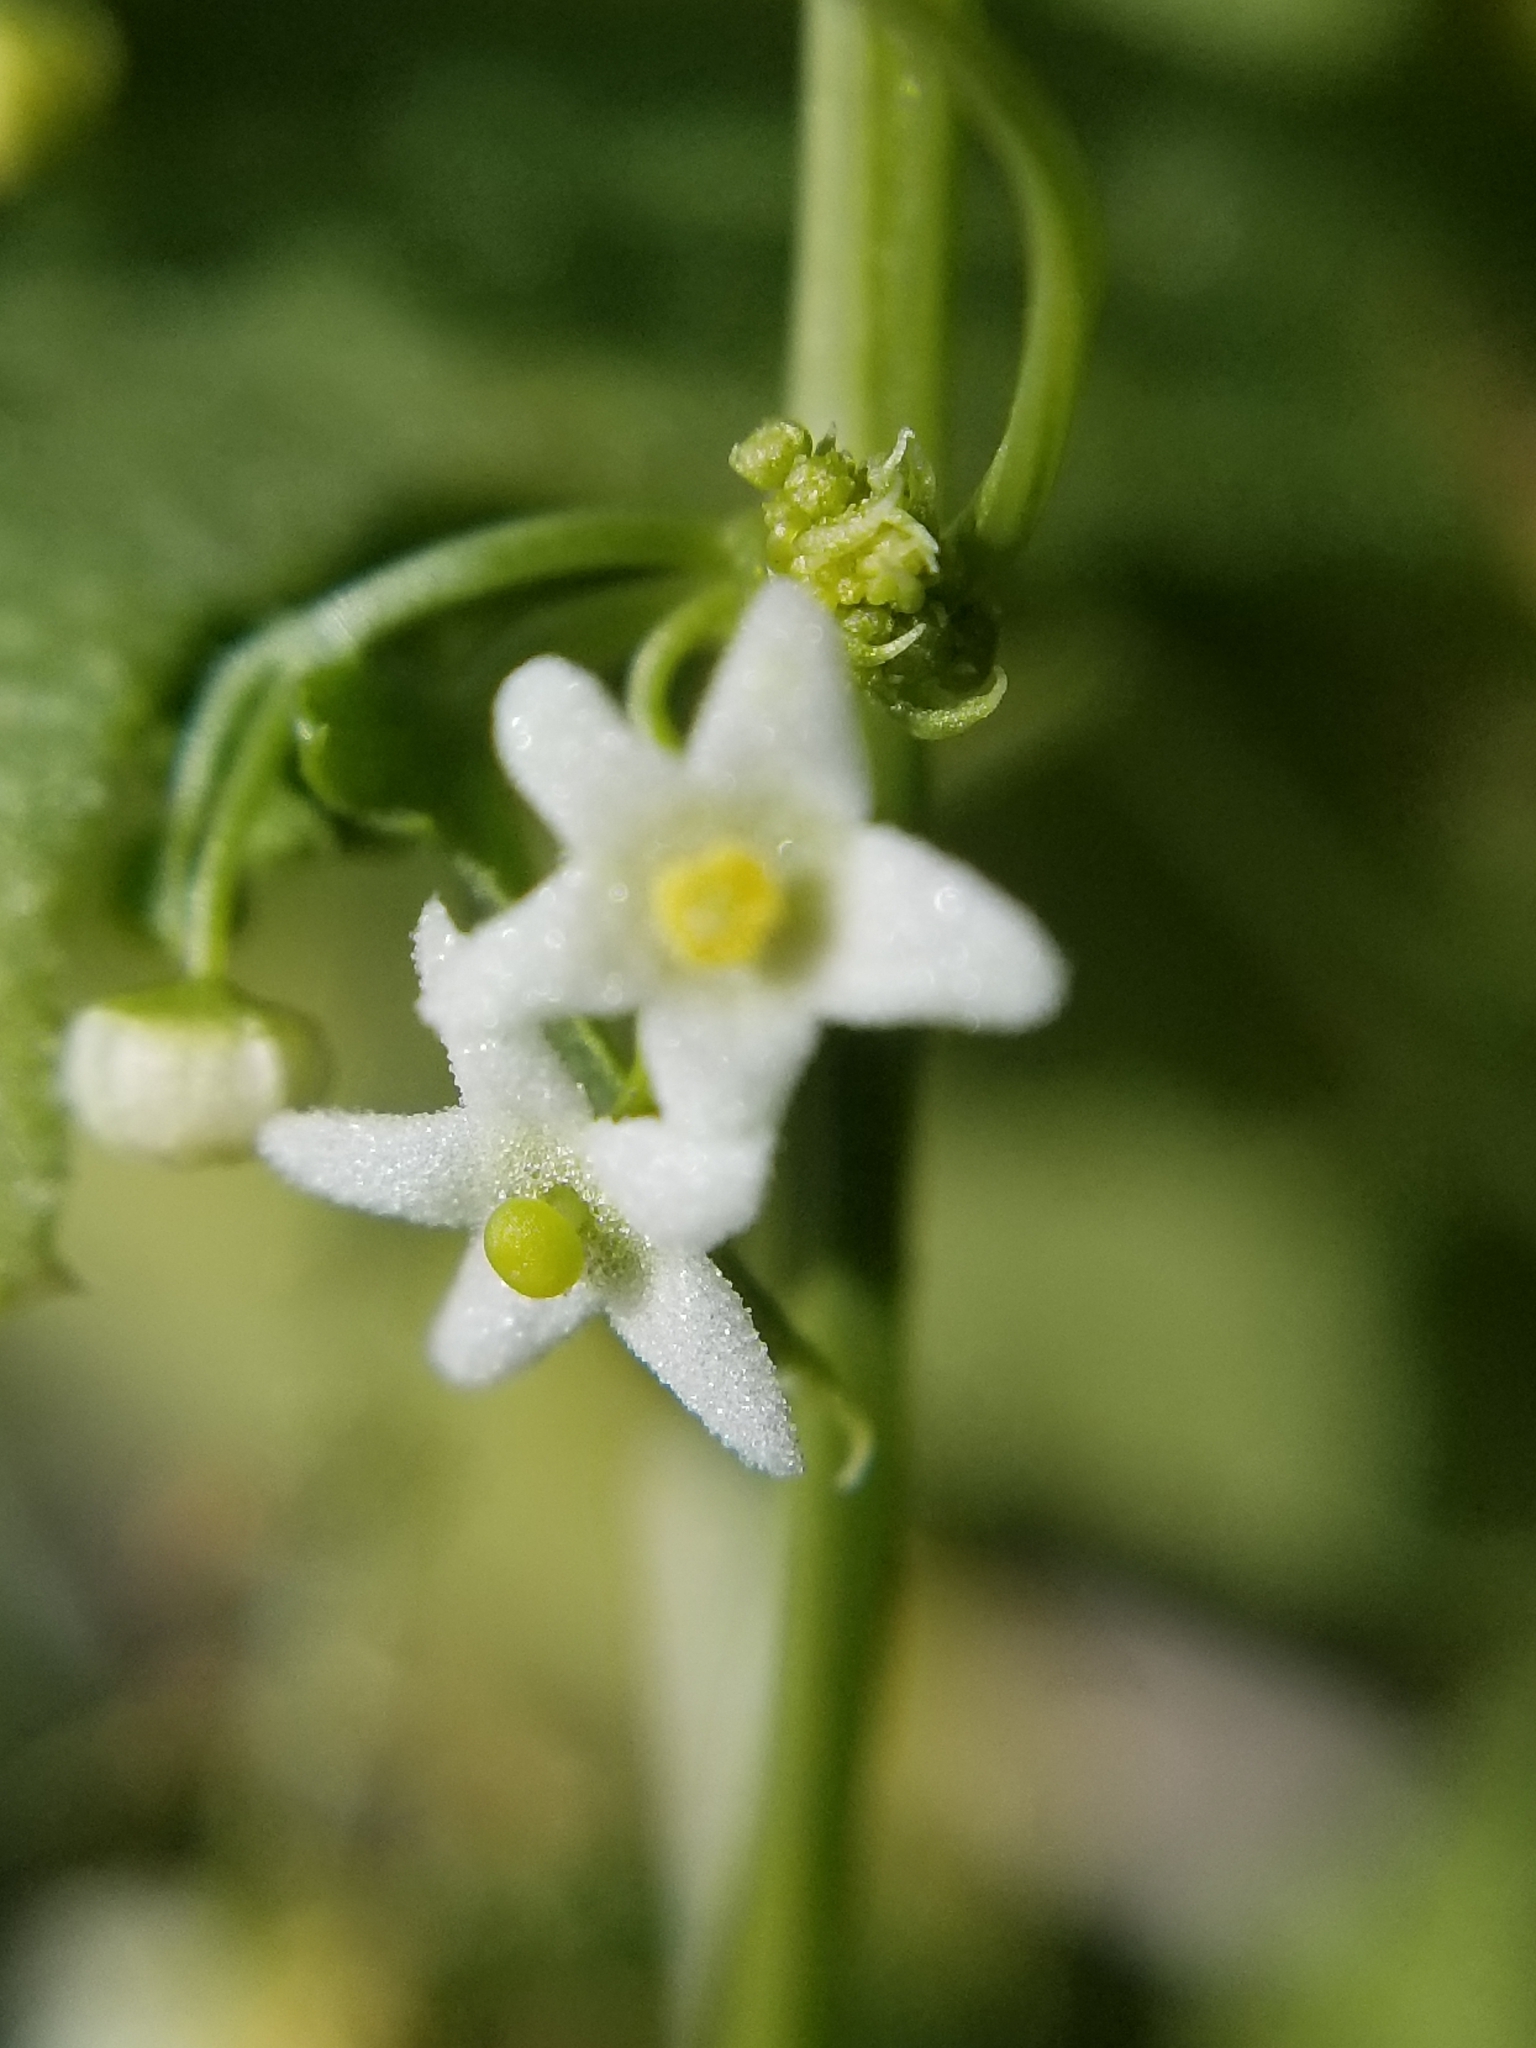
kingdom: Plantae
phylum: Tracheophyta
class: Magnoliopsida
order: Cucurbitales
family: Cucurbitaceae
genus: Echinopepon
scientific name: Echinopepon bigelovii
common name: Desert starvine
